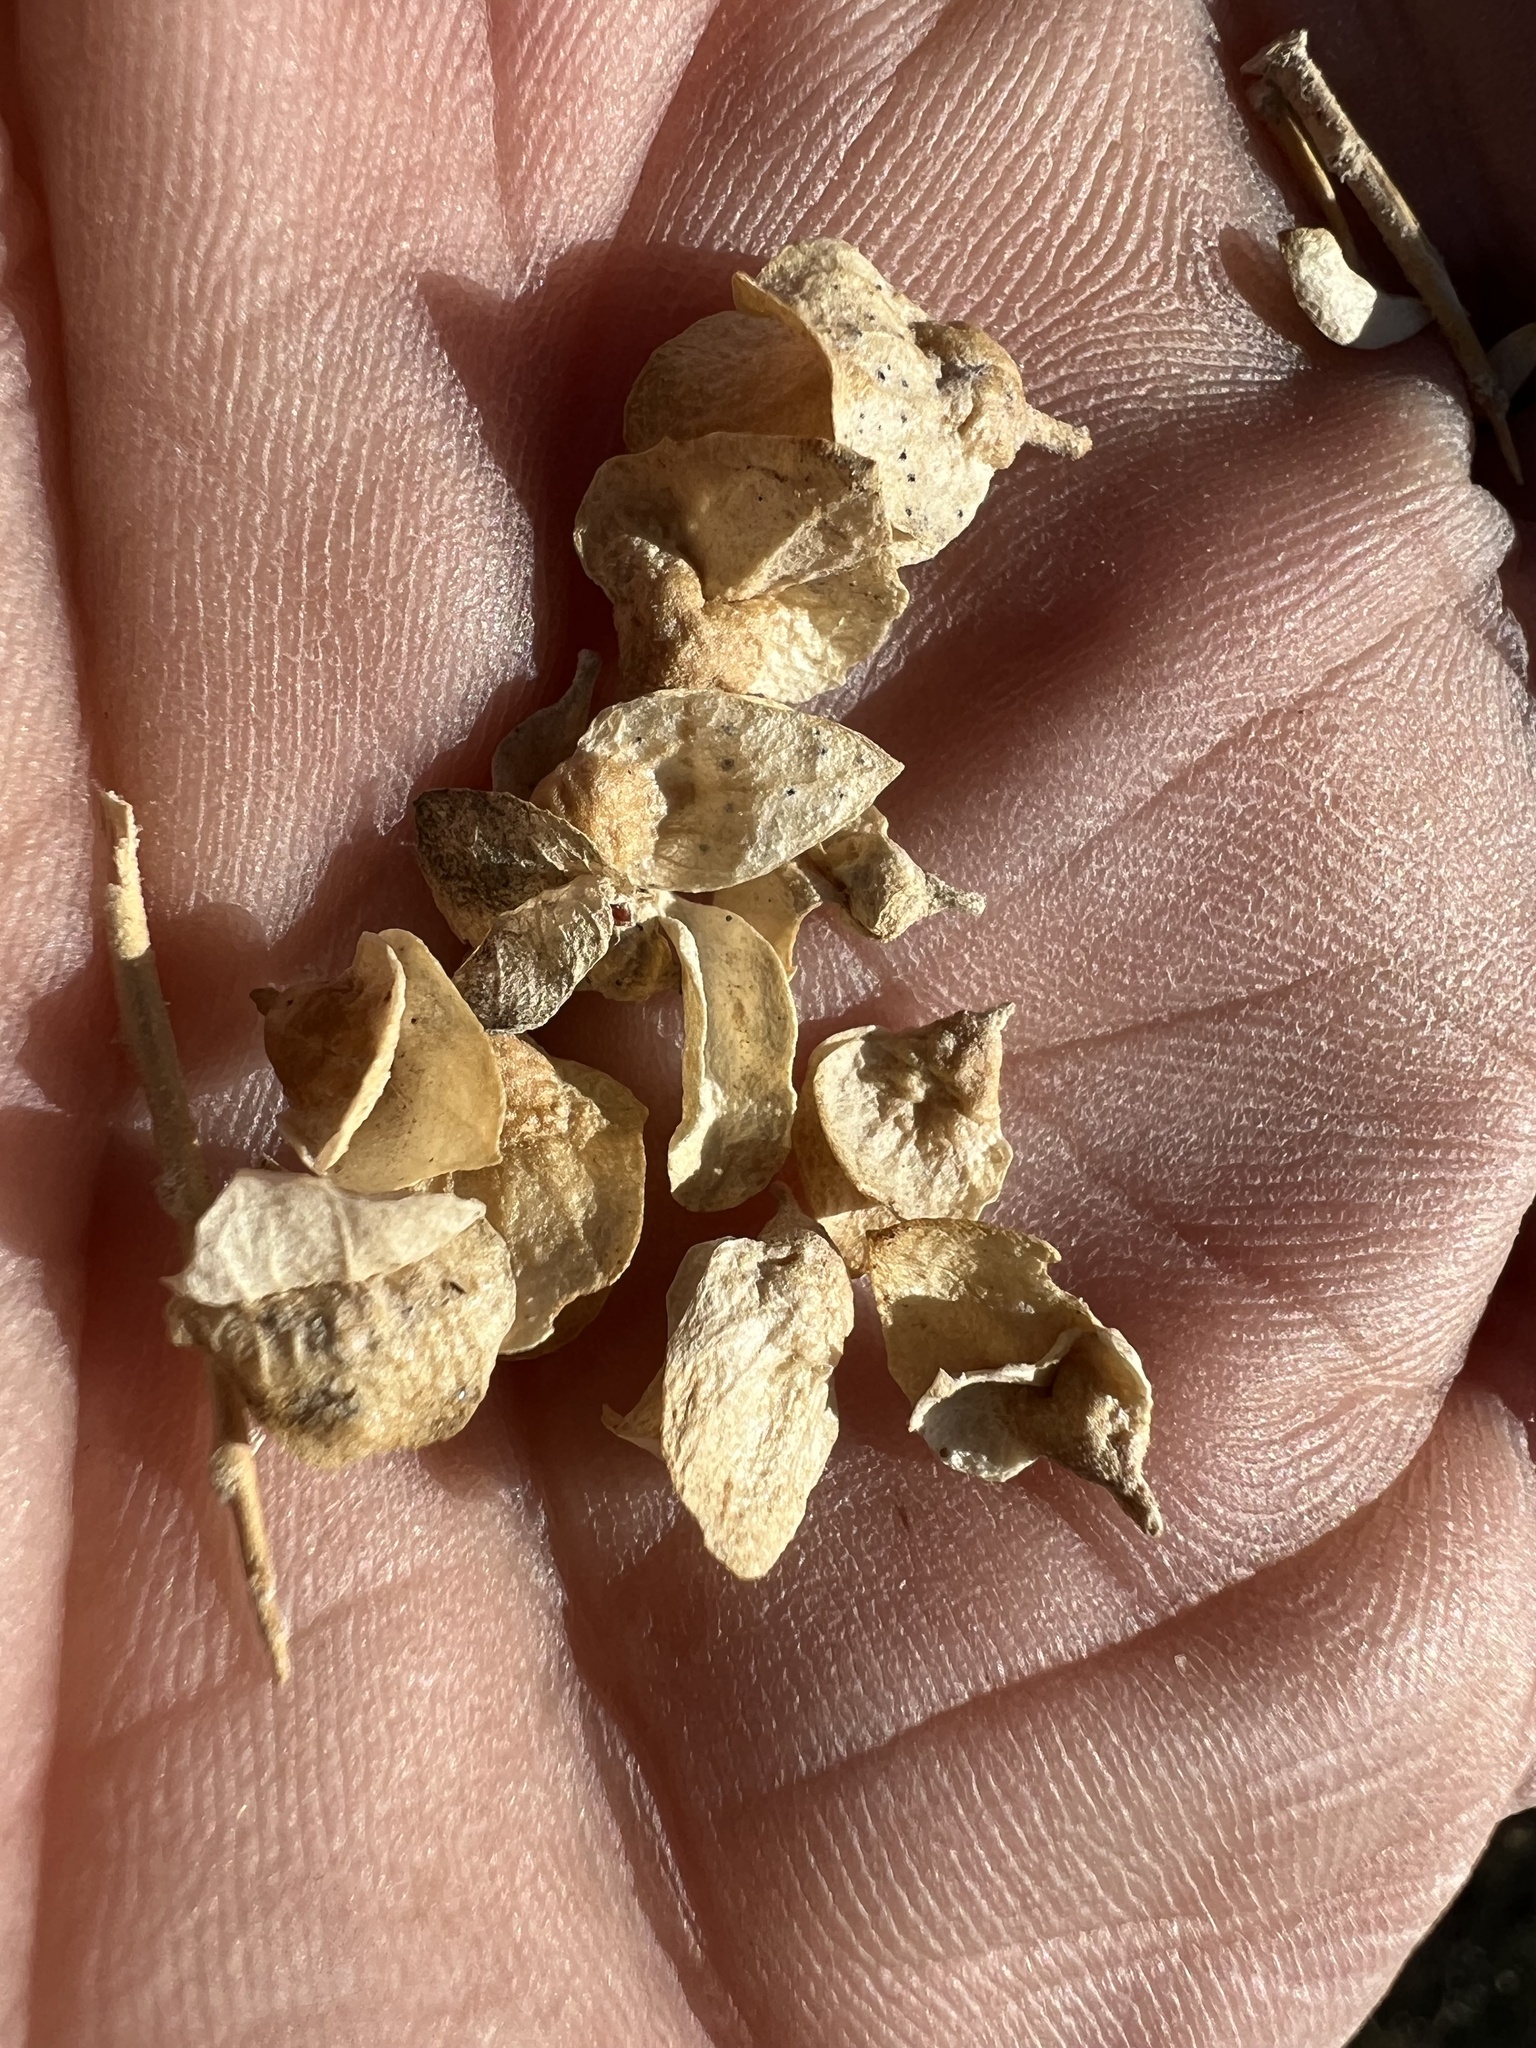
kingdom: Plantae
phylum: Tracheophyta
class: Magnoliopsida
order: Caryophyllales
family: Amaranthaceae
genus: Atriplex
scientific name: Atriplex confertifolia
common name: Shadscale
